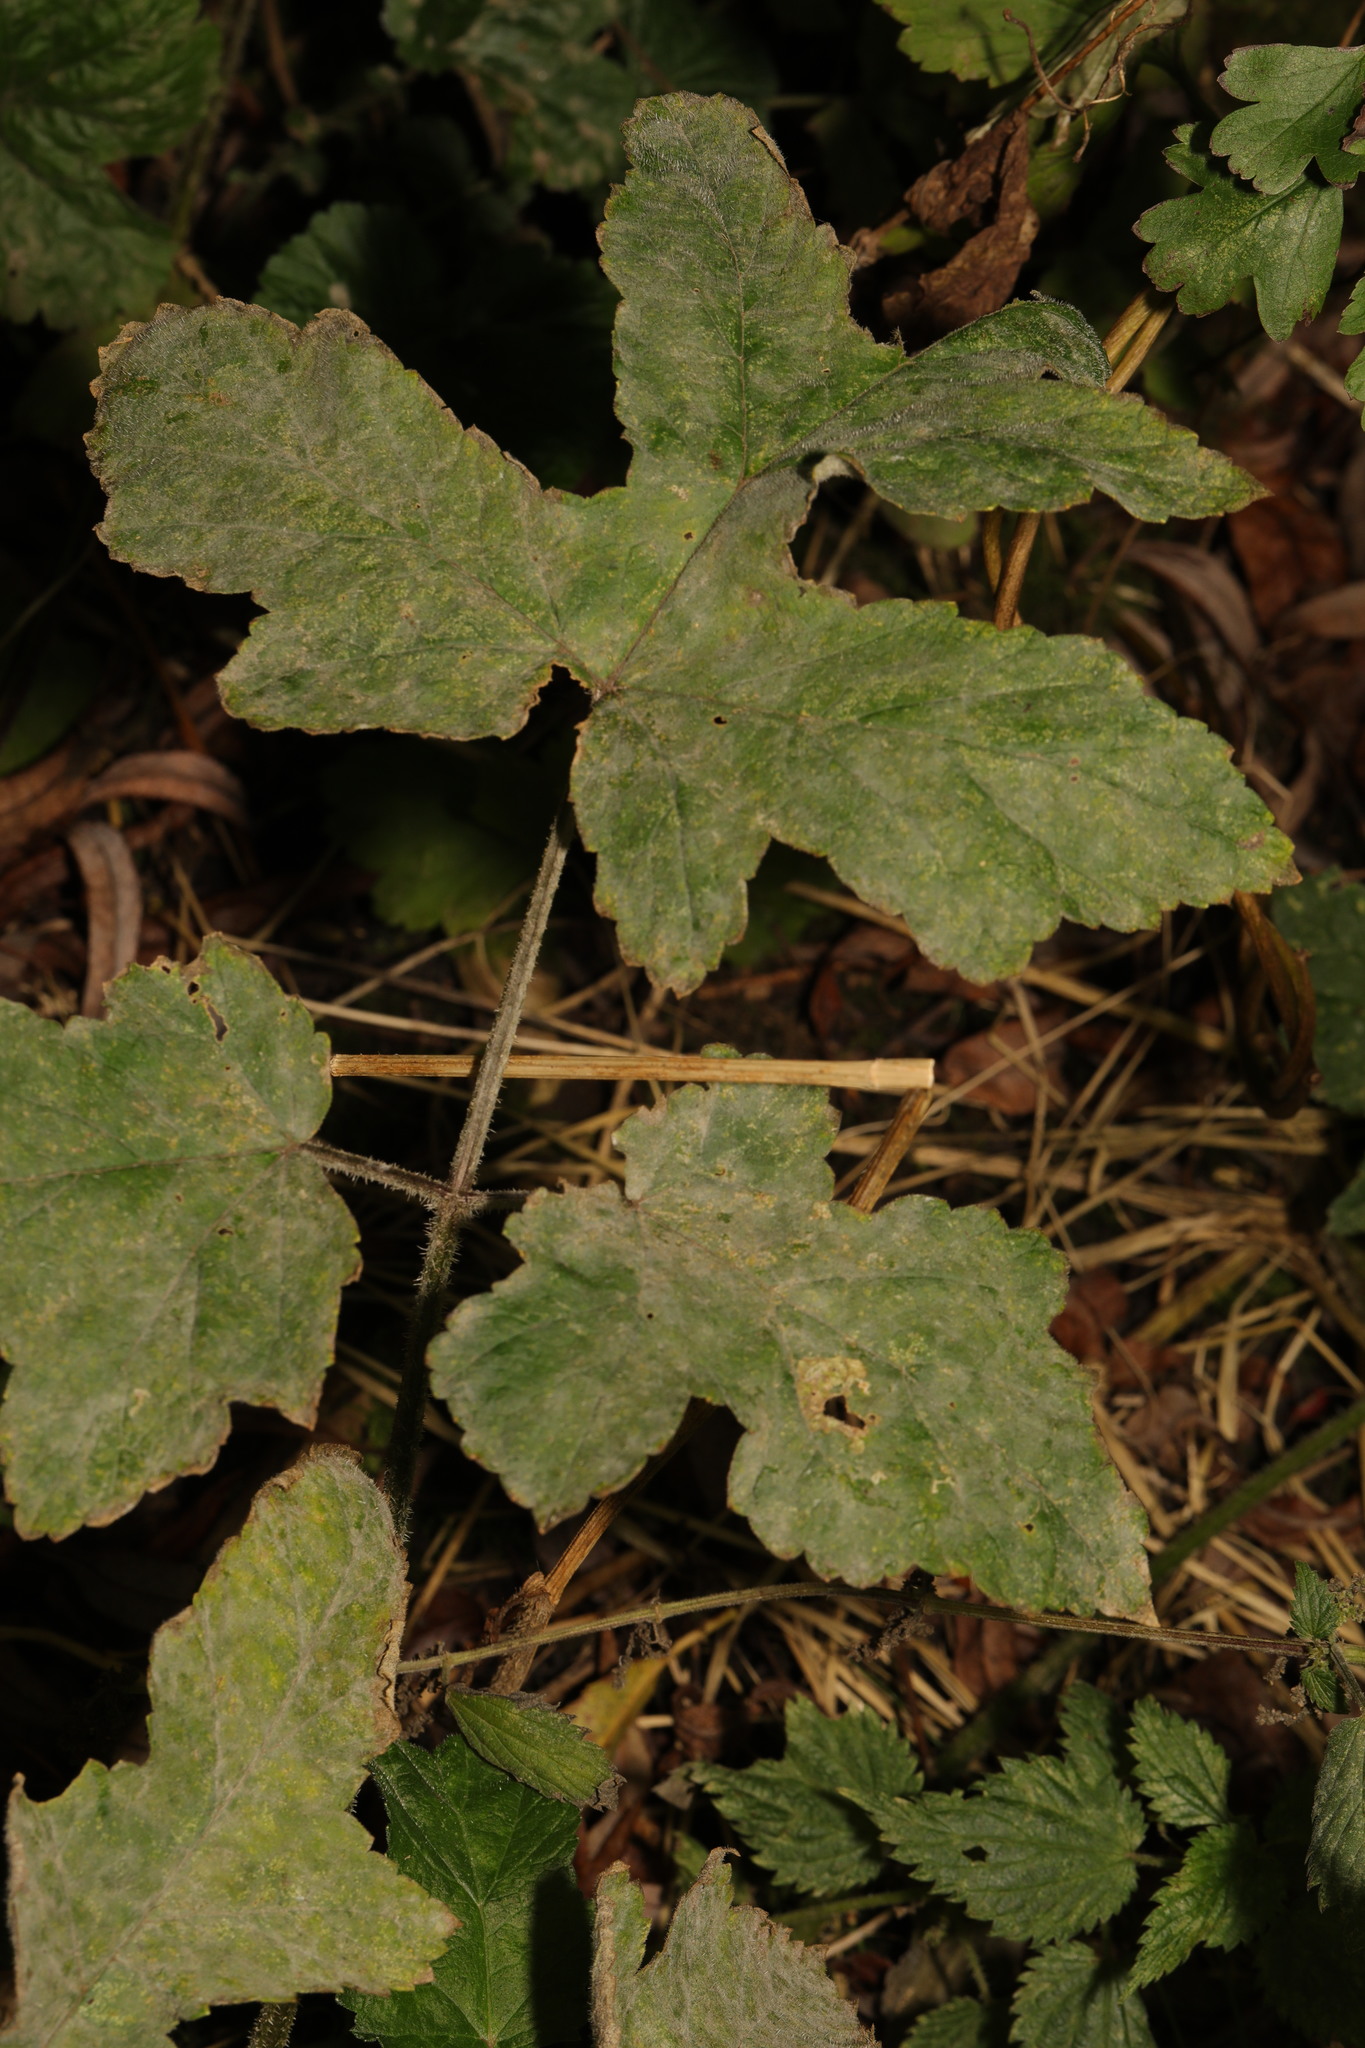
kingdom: Fungi
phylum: Ascomycota
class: Leotiomycetes
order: Helotiales
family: Erysiphaceae
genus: Erysiphe
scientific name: Erysiphe heraclei
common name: Umbellifer mildew
